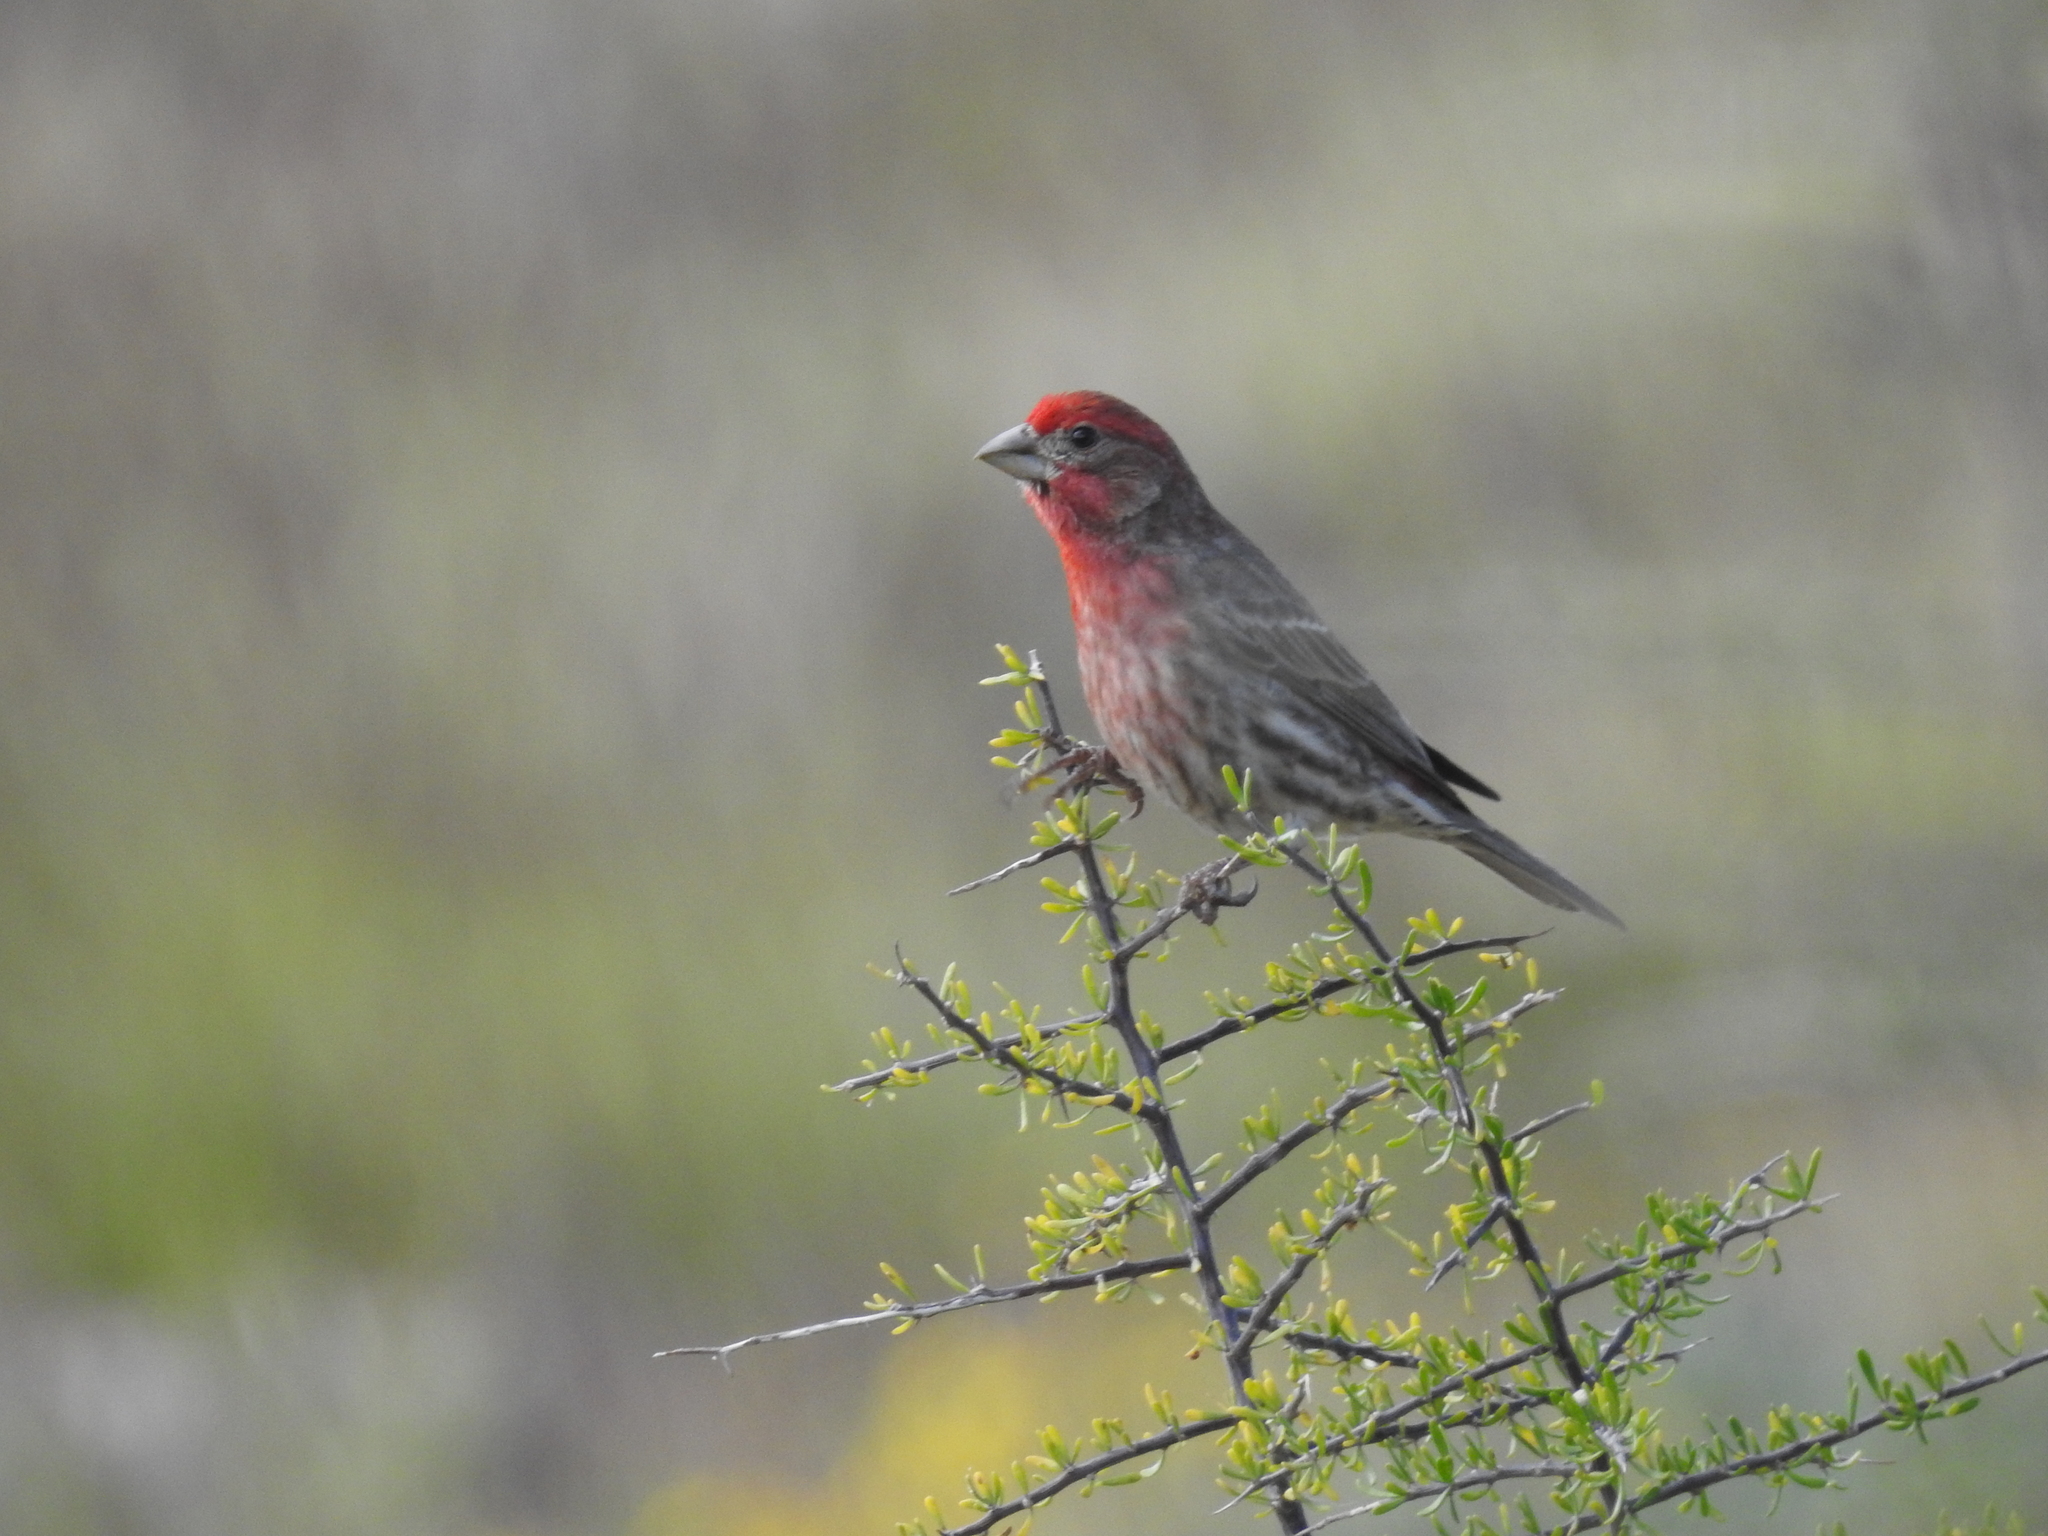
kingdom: Animalia
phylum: Chordata
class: Aves
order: Passeriformes
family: Fringillidae
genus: Haemorhous
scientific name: Haemorhous mexicanus
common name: House finch
